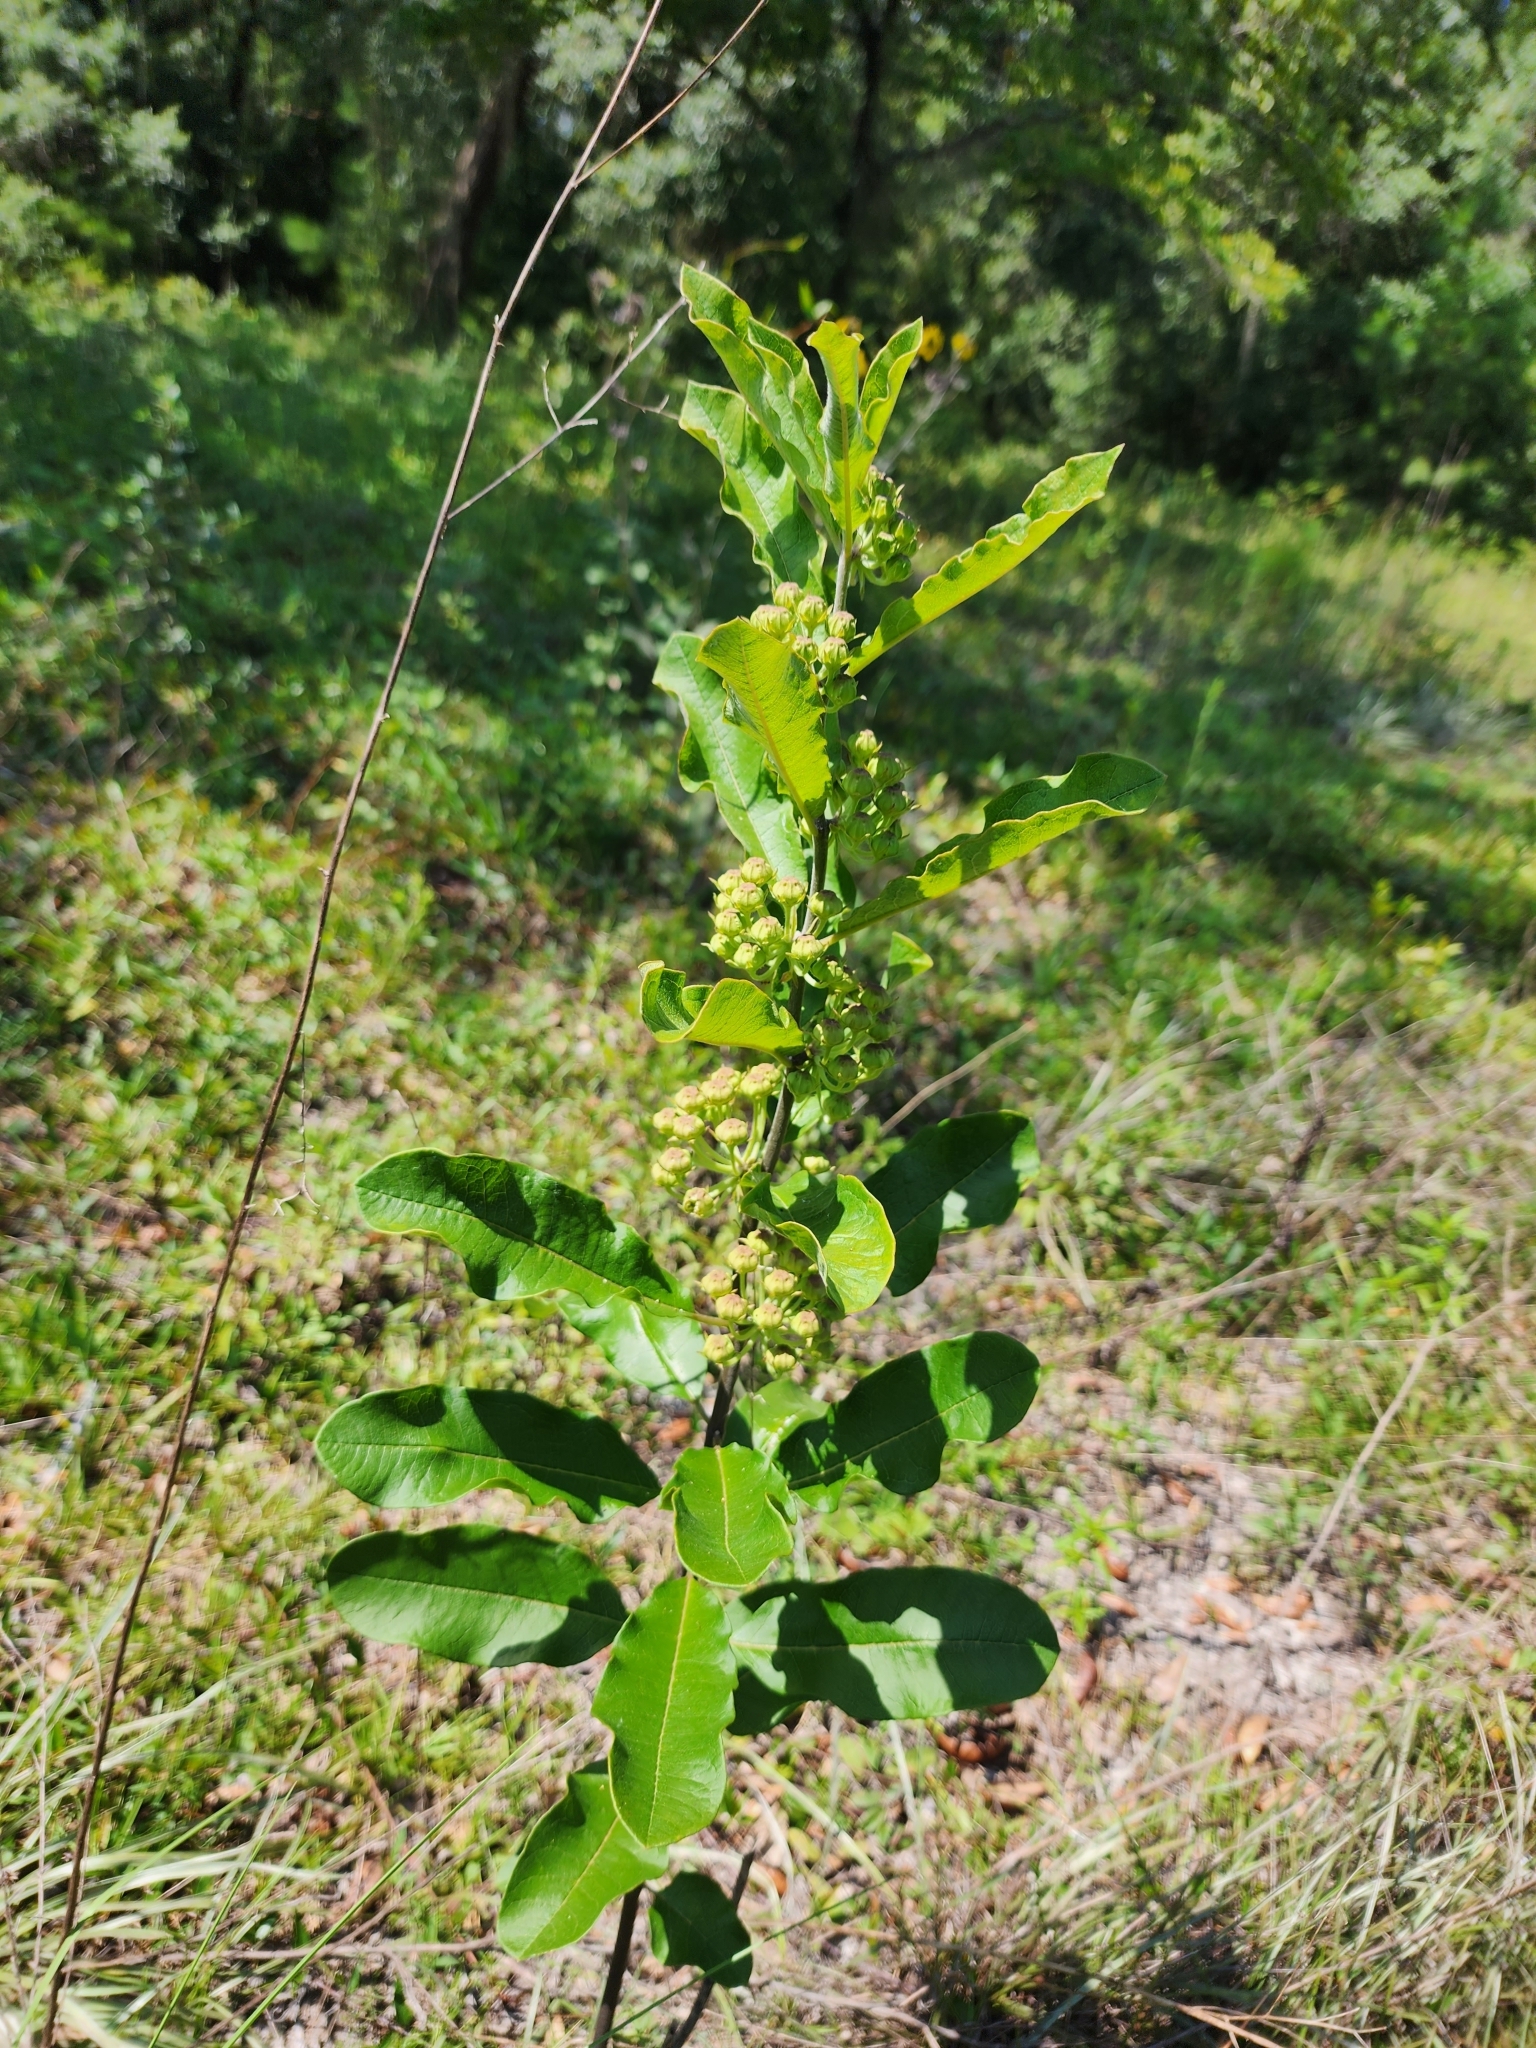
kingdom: Plantae
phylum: Tracheophyta
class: Magnoliopsida
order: Gentianales
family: Apocynaceae
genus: Asclepias
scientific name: Asclepias tomentosa
